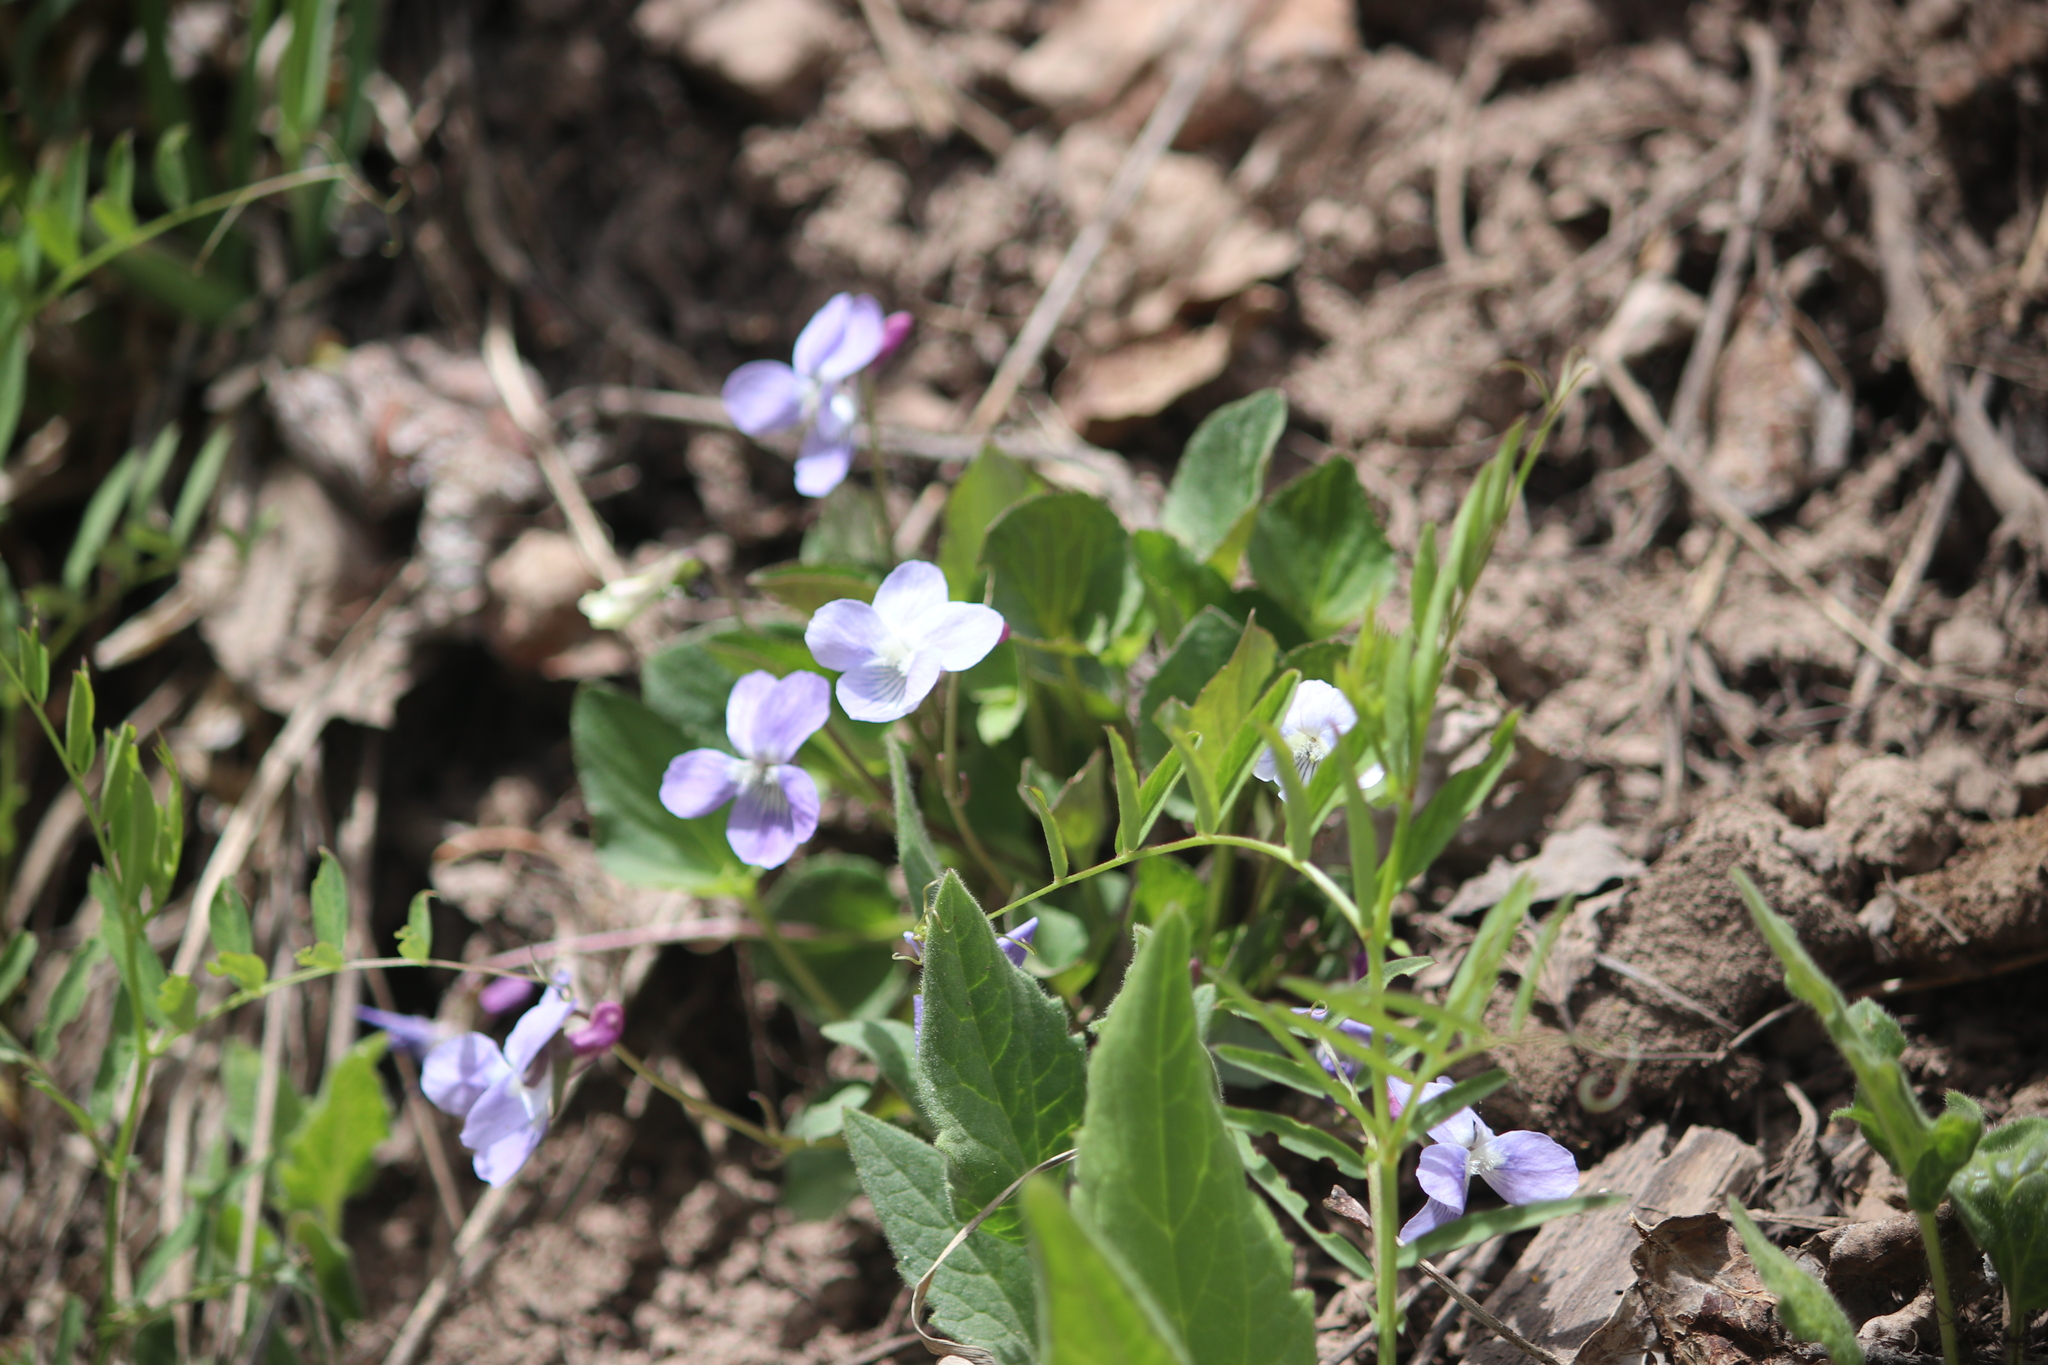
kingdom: Plantae
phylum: Tracheophyta
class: Magnoliopsida
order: Malpighiales
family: Violaceae
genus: Viola
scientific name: Viola adunca
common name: Sand violet
